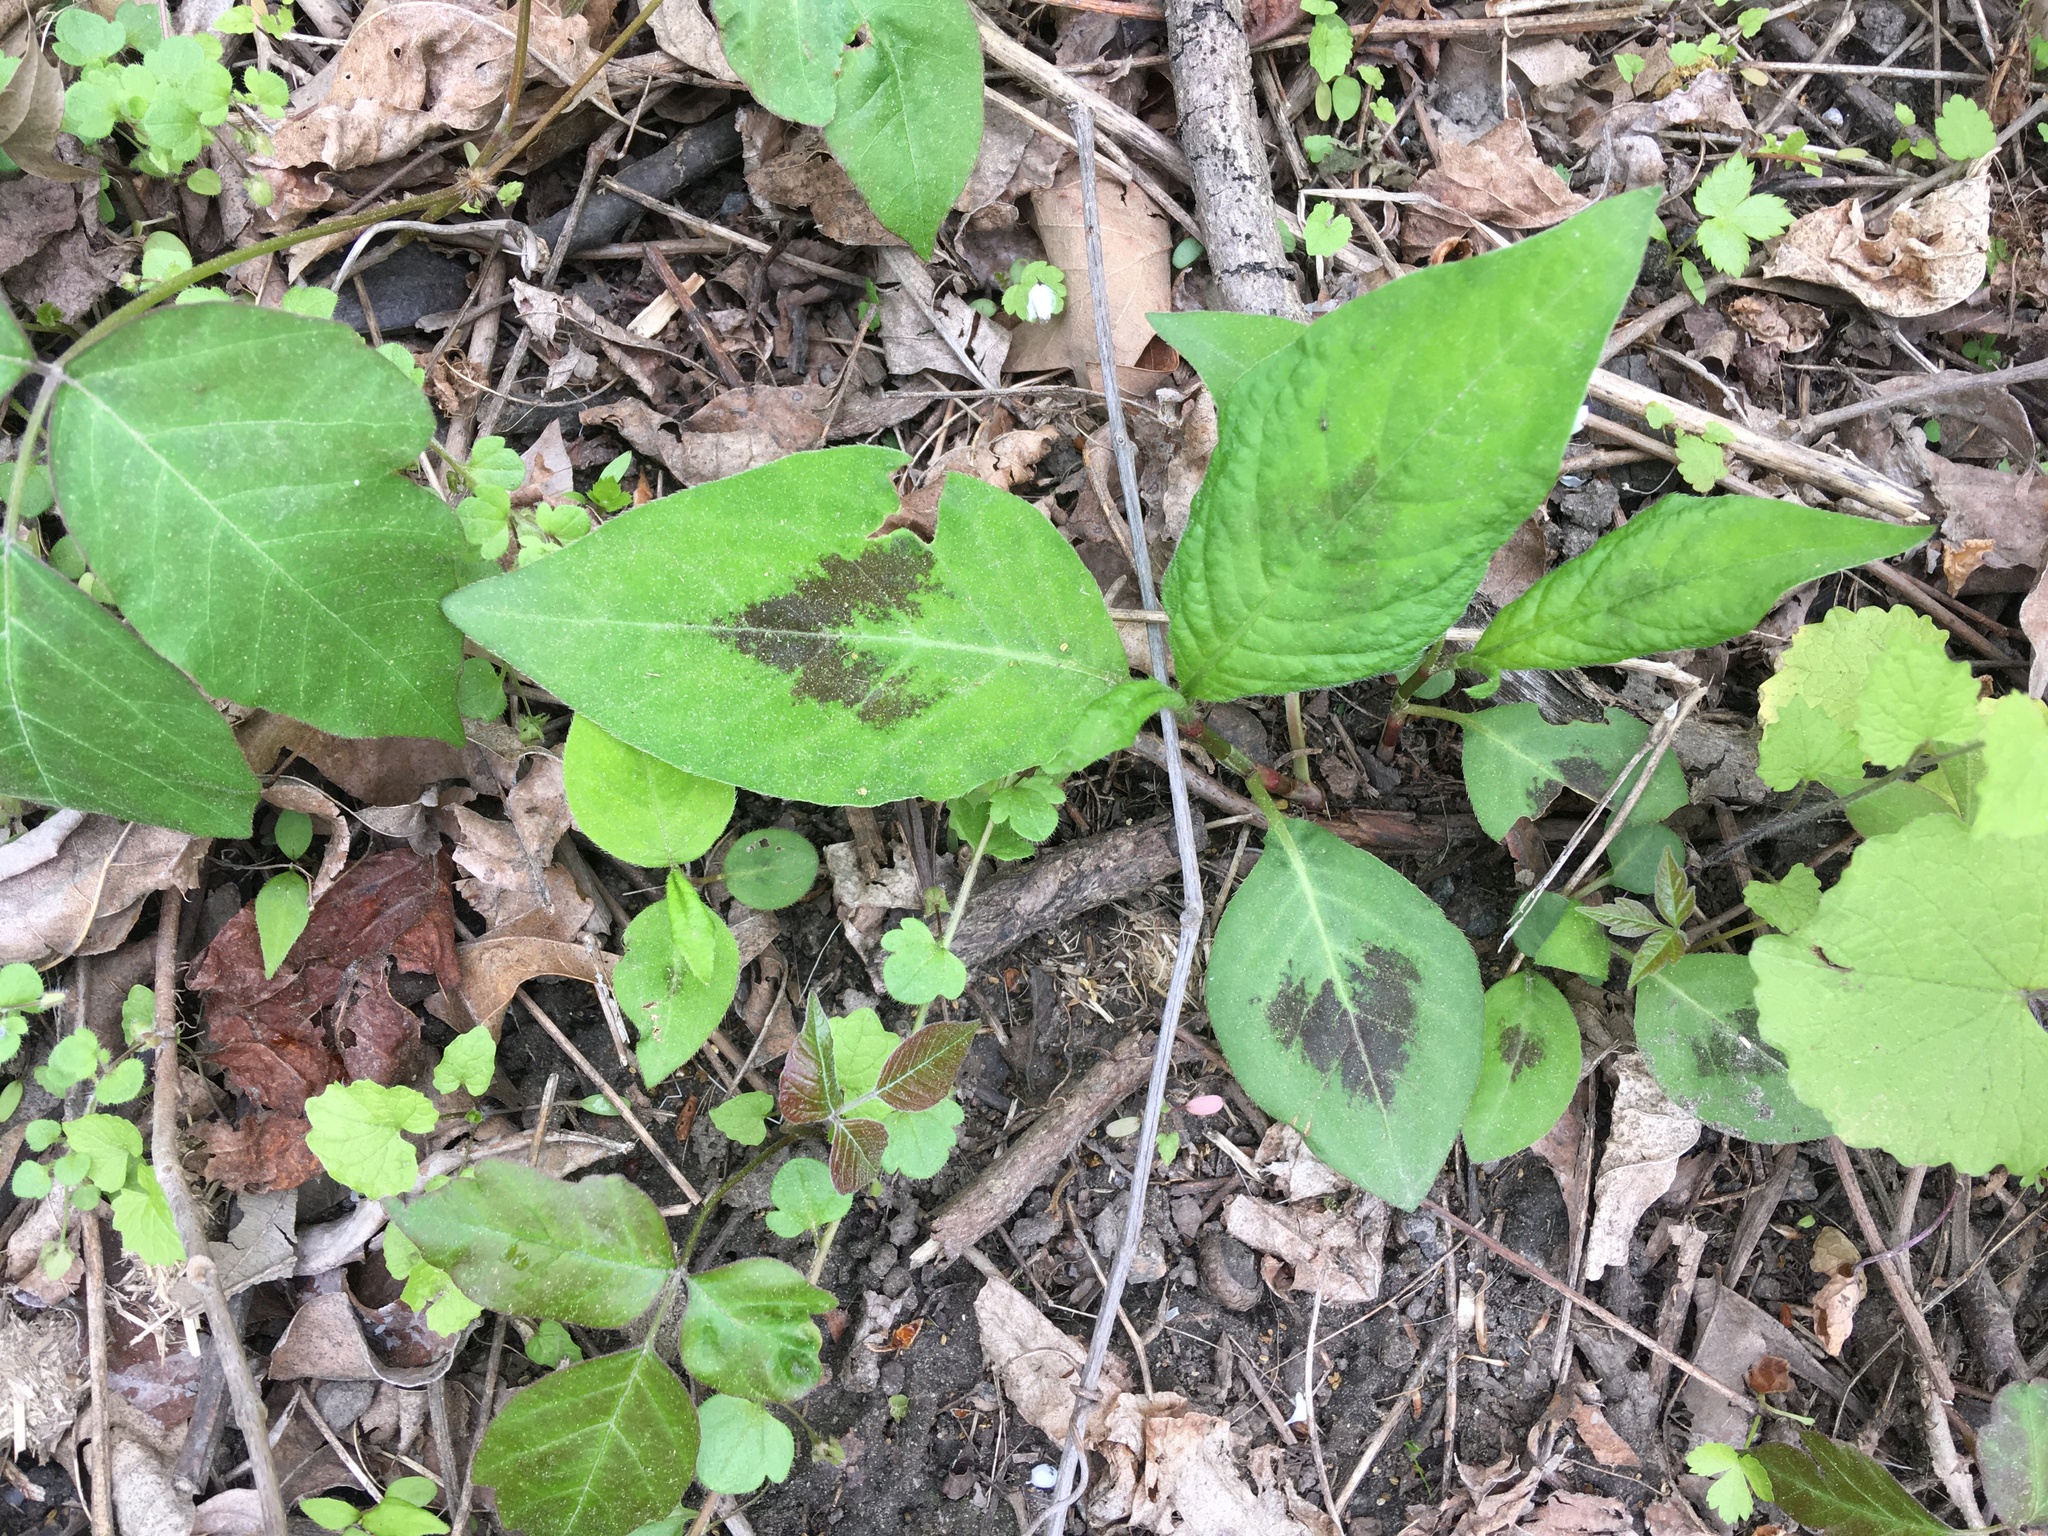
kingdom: Plantae
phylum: Tracheophyta
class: Magnoliopsida
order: Caryophyllales
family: Polygonaceae
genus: Persicaria
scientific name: Persicaria virginiana
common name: Jumpseed
